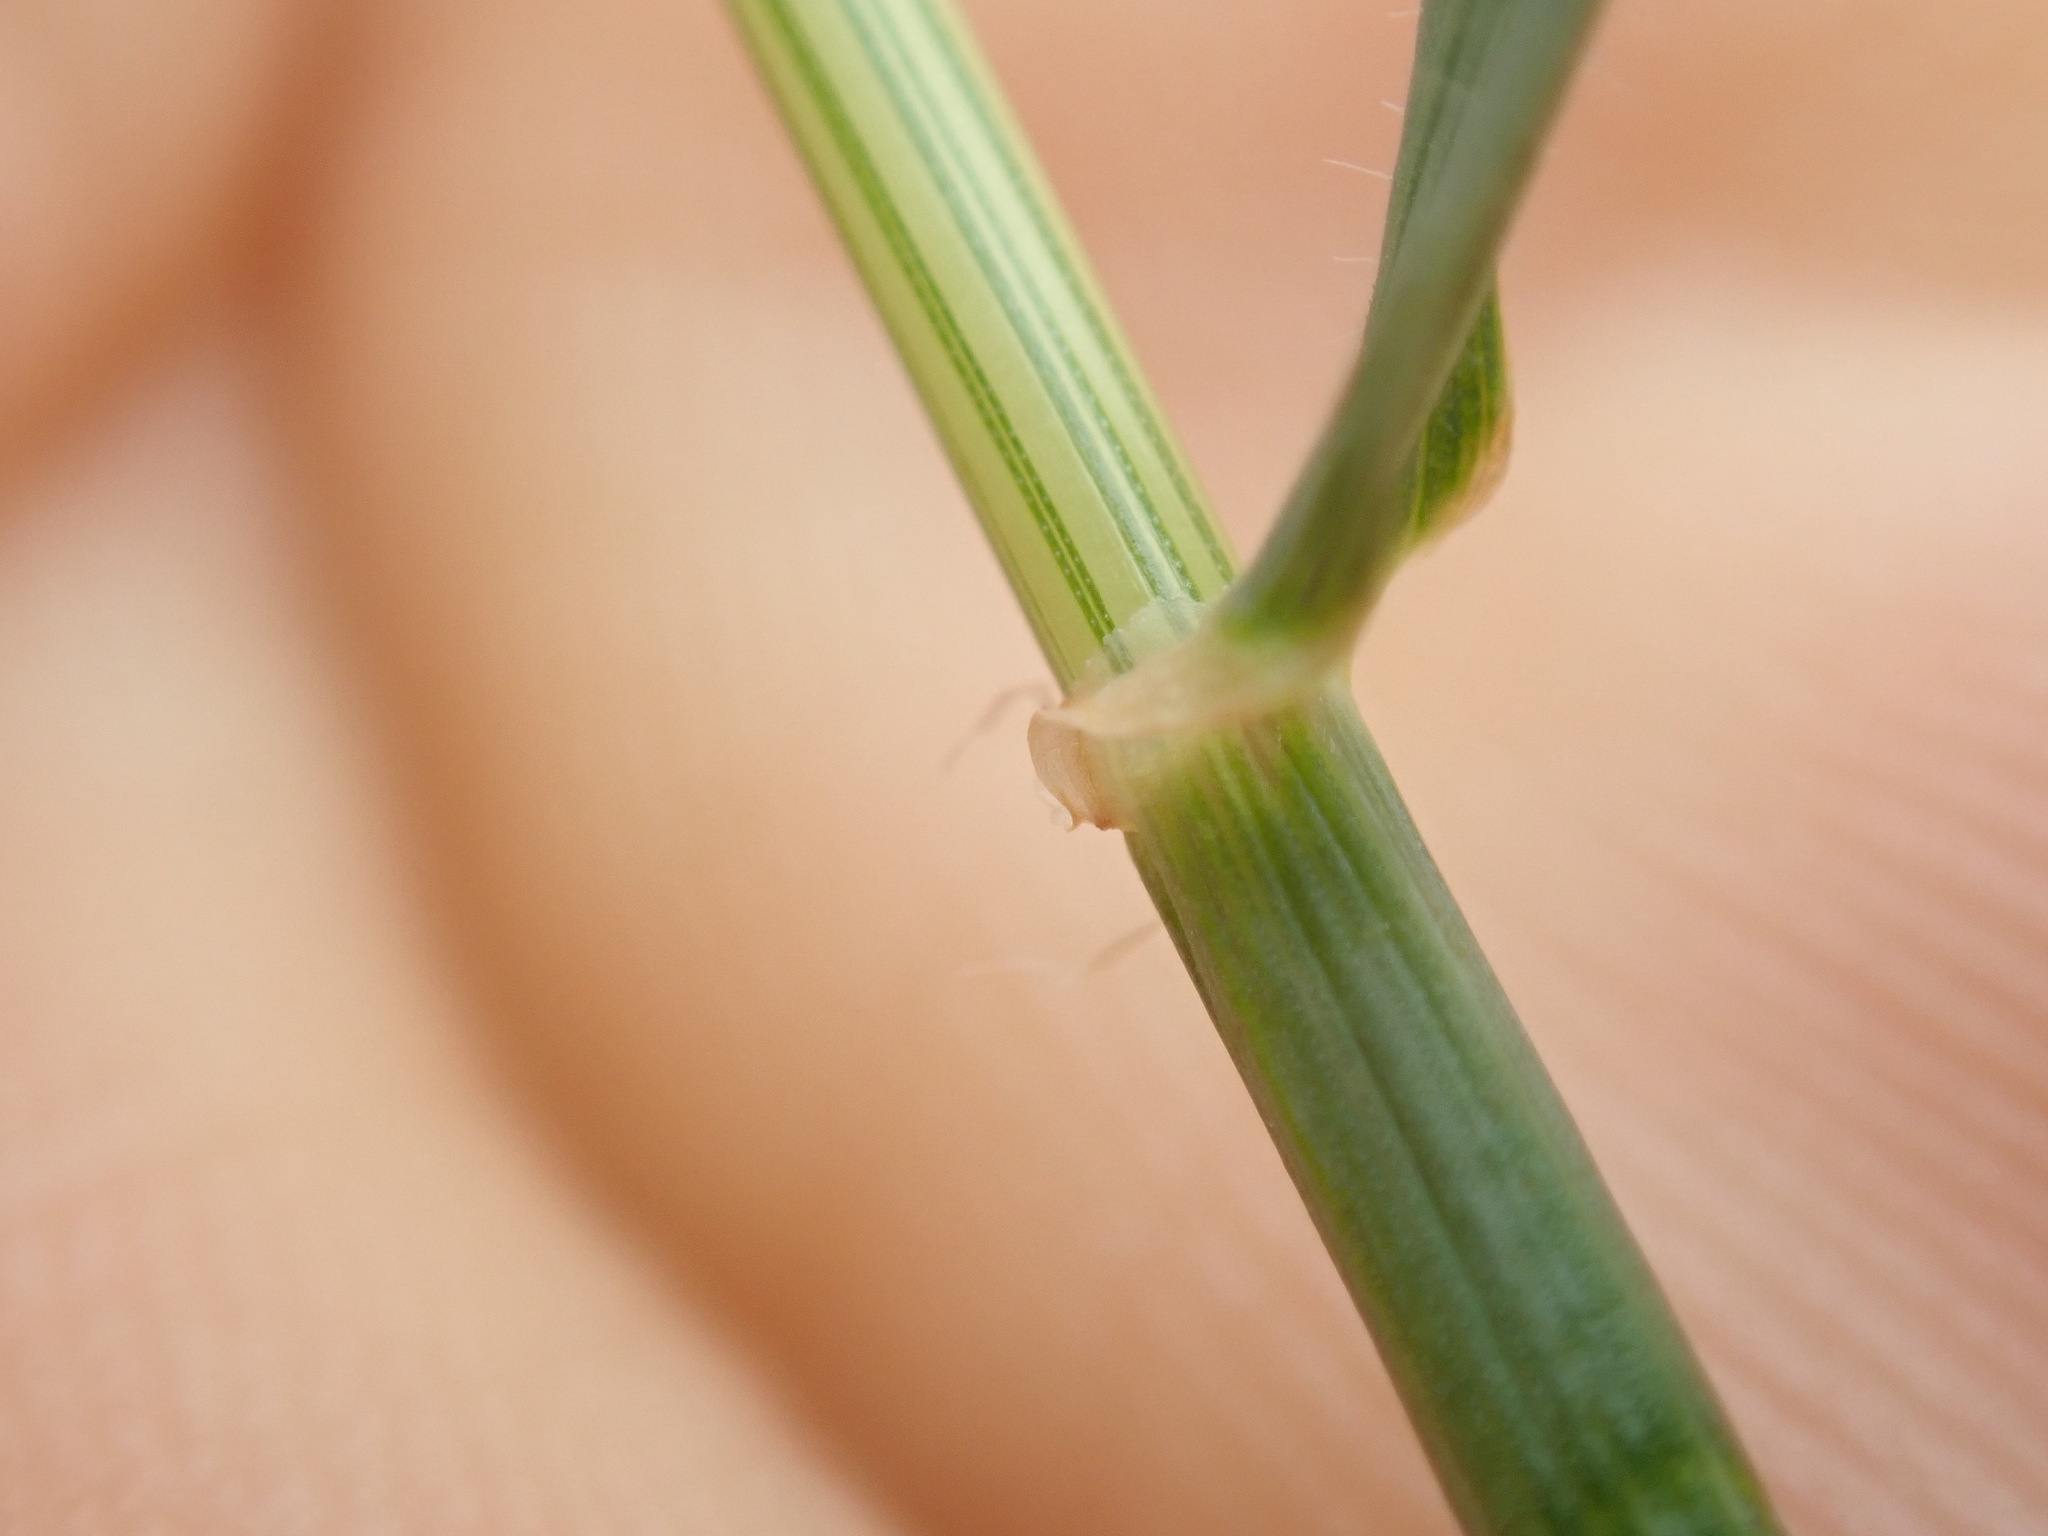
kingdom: Plantae
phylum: Tracheophyta
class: Liliopsida
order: Poales
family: Poaceae
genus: Hordeum
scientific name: Hordeum jubatum
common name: Foxtail barley
